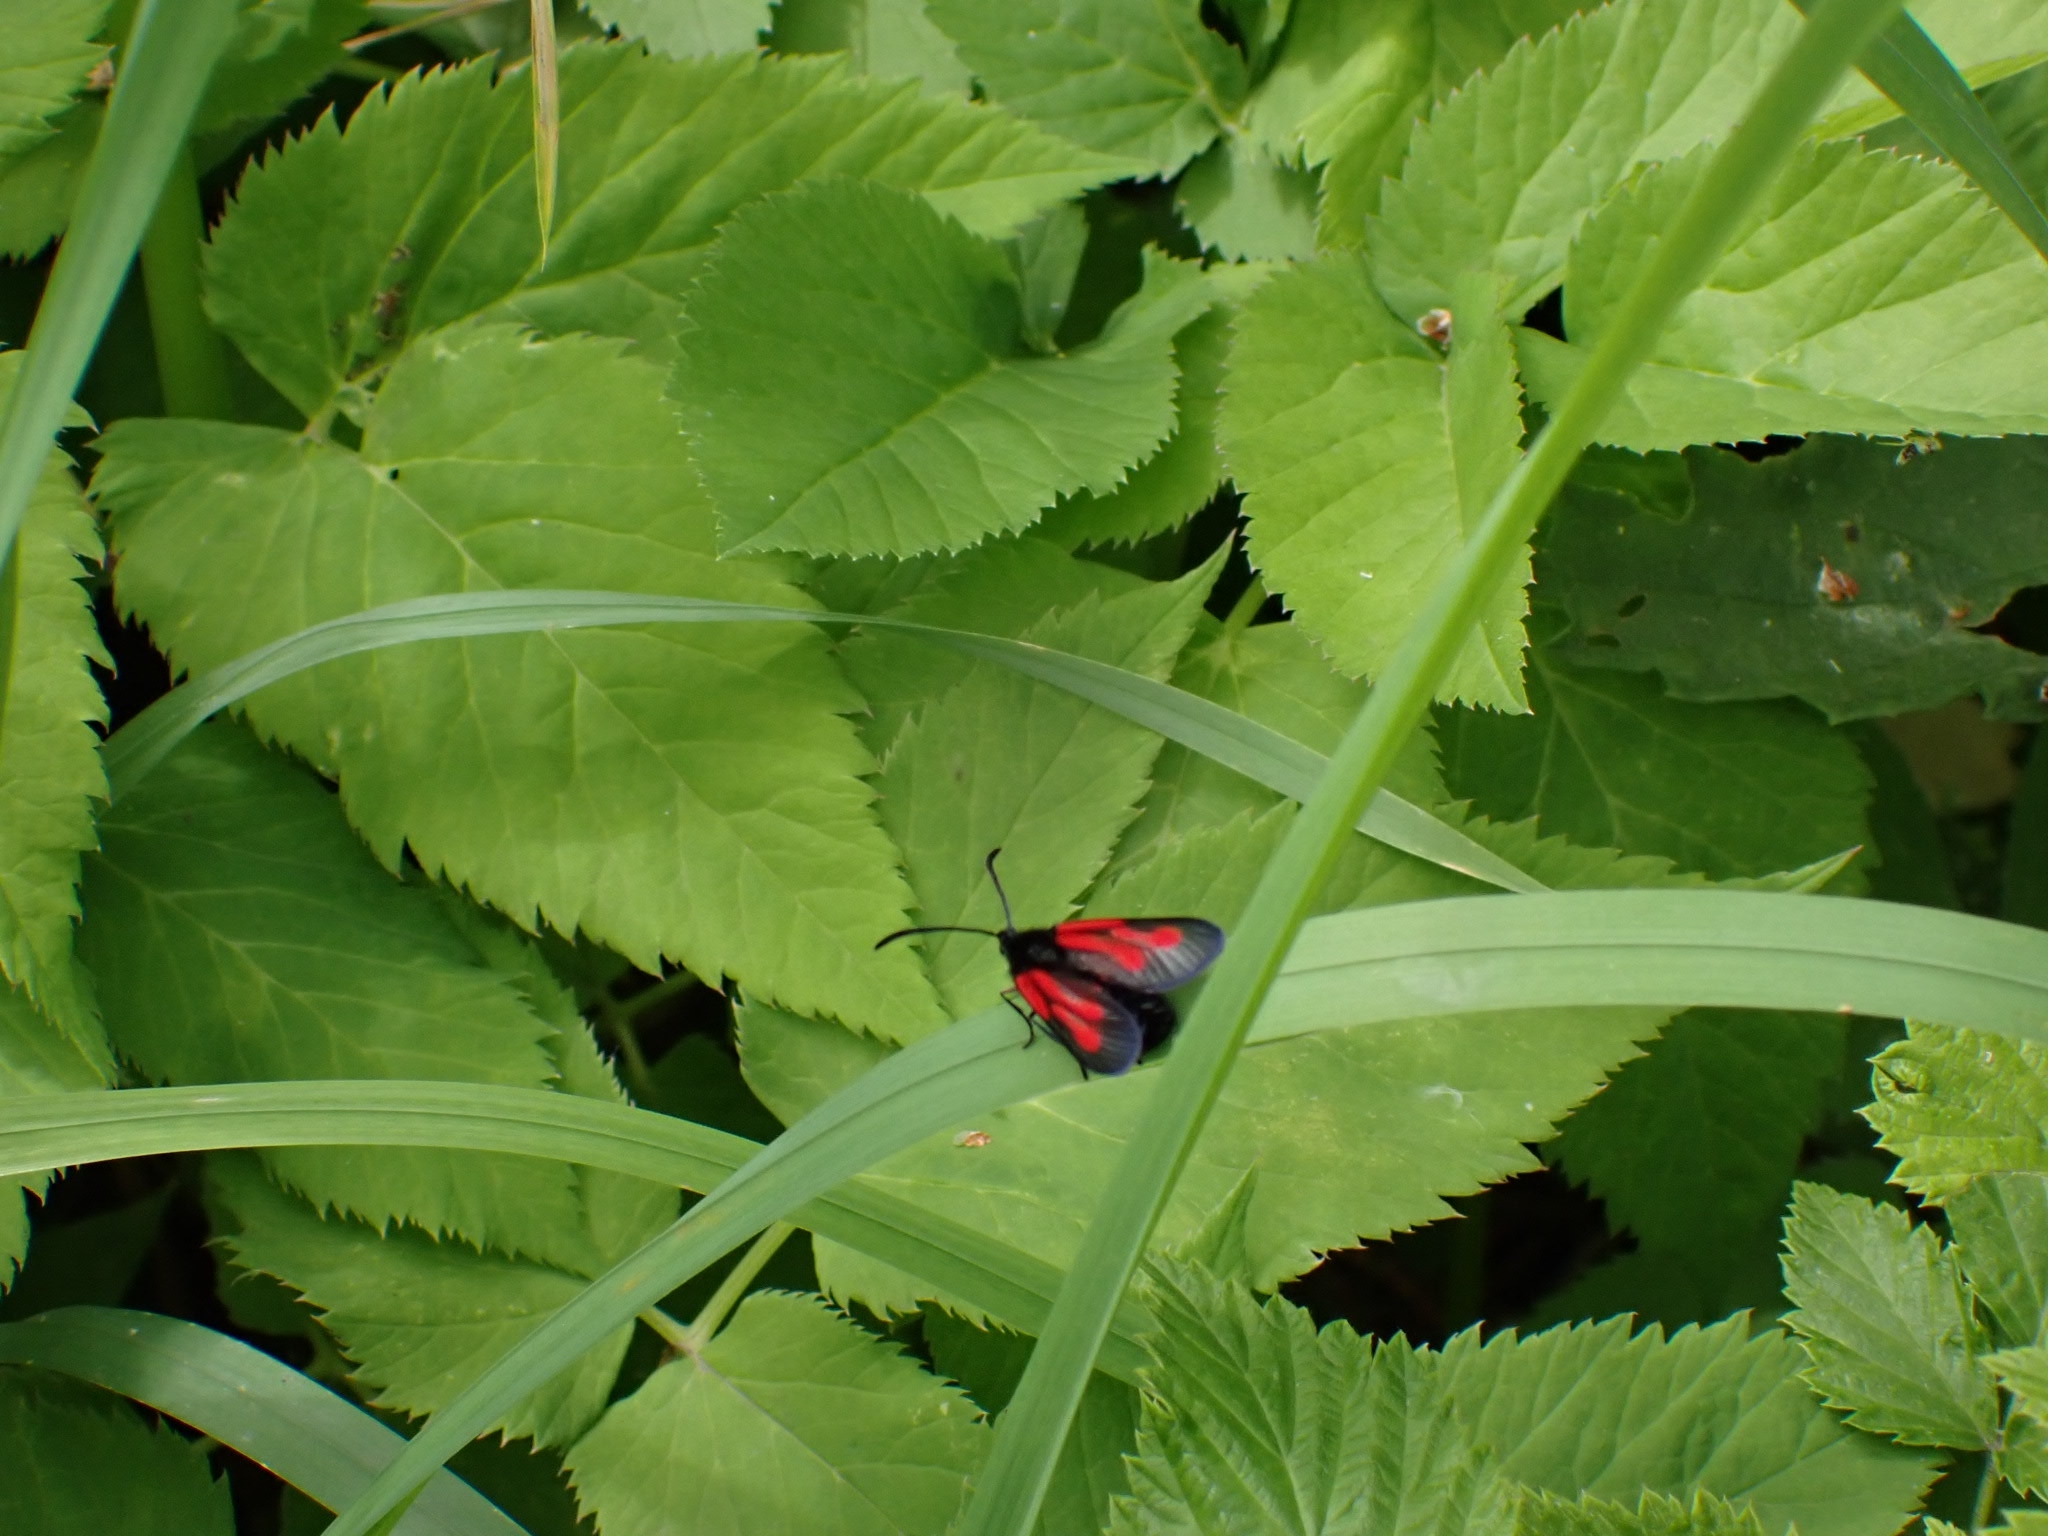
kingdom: Animalia
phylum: Arthropoda
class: Insecta
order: Lepidoptera
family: Zygaenidae
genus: Zygaena
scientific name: Zygaena osterodensis
